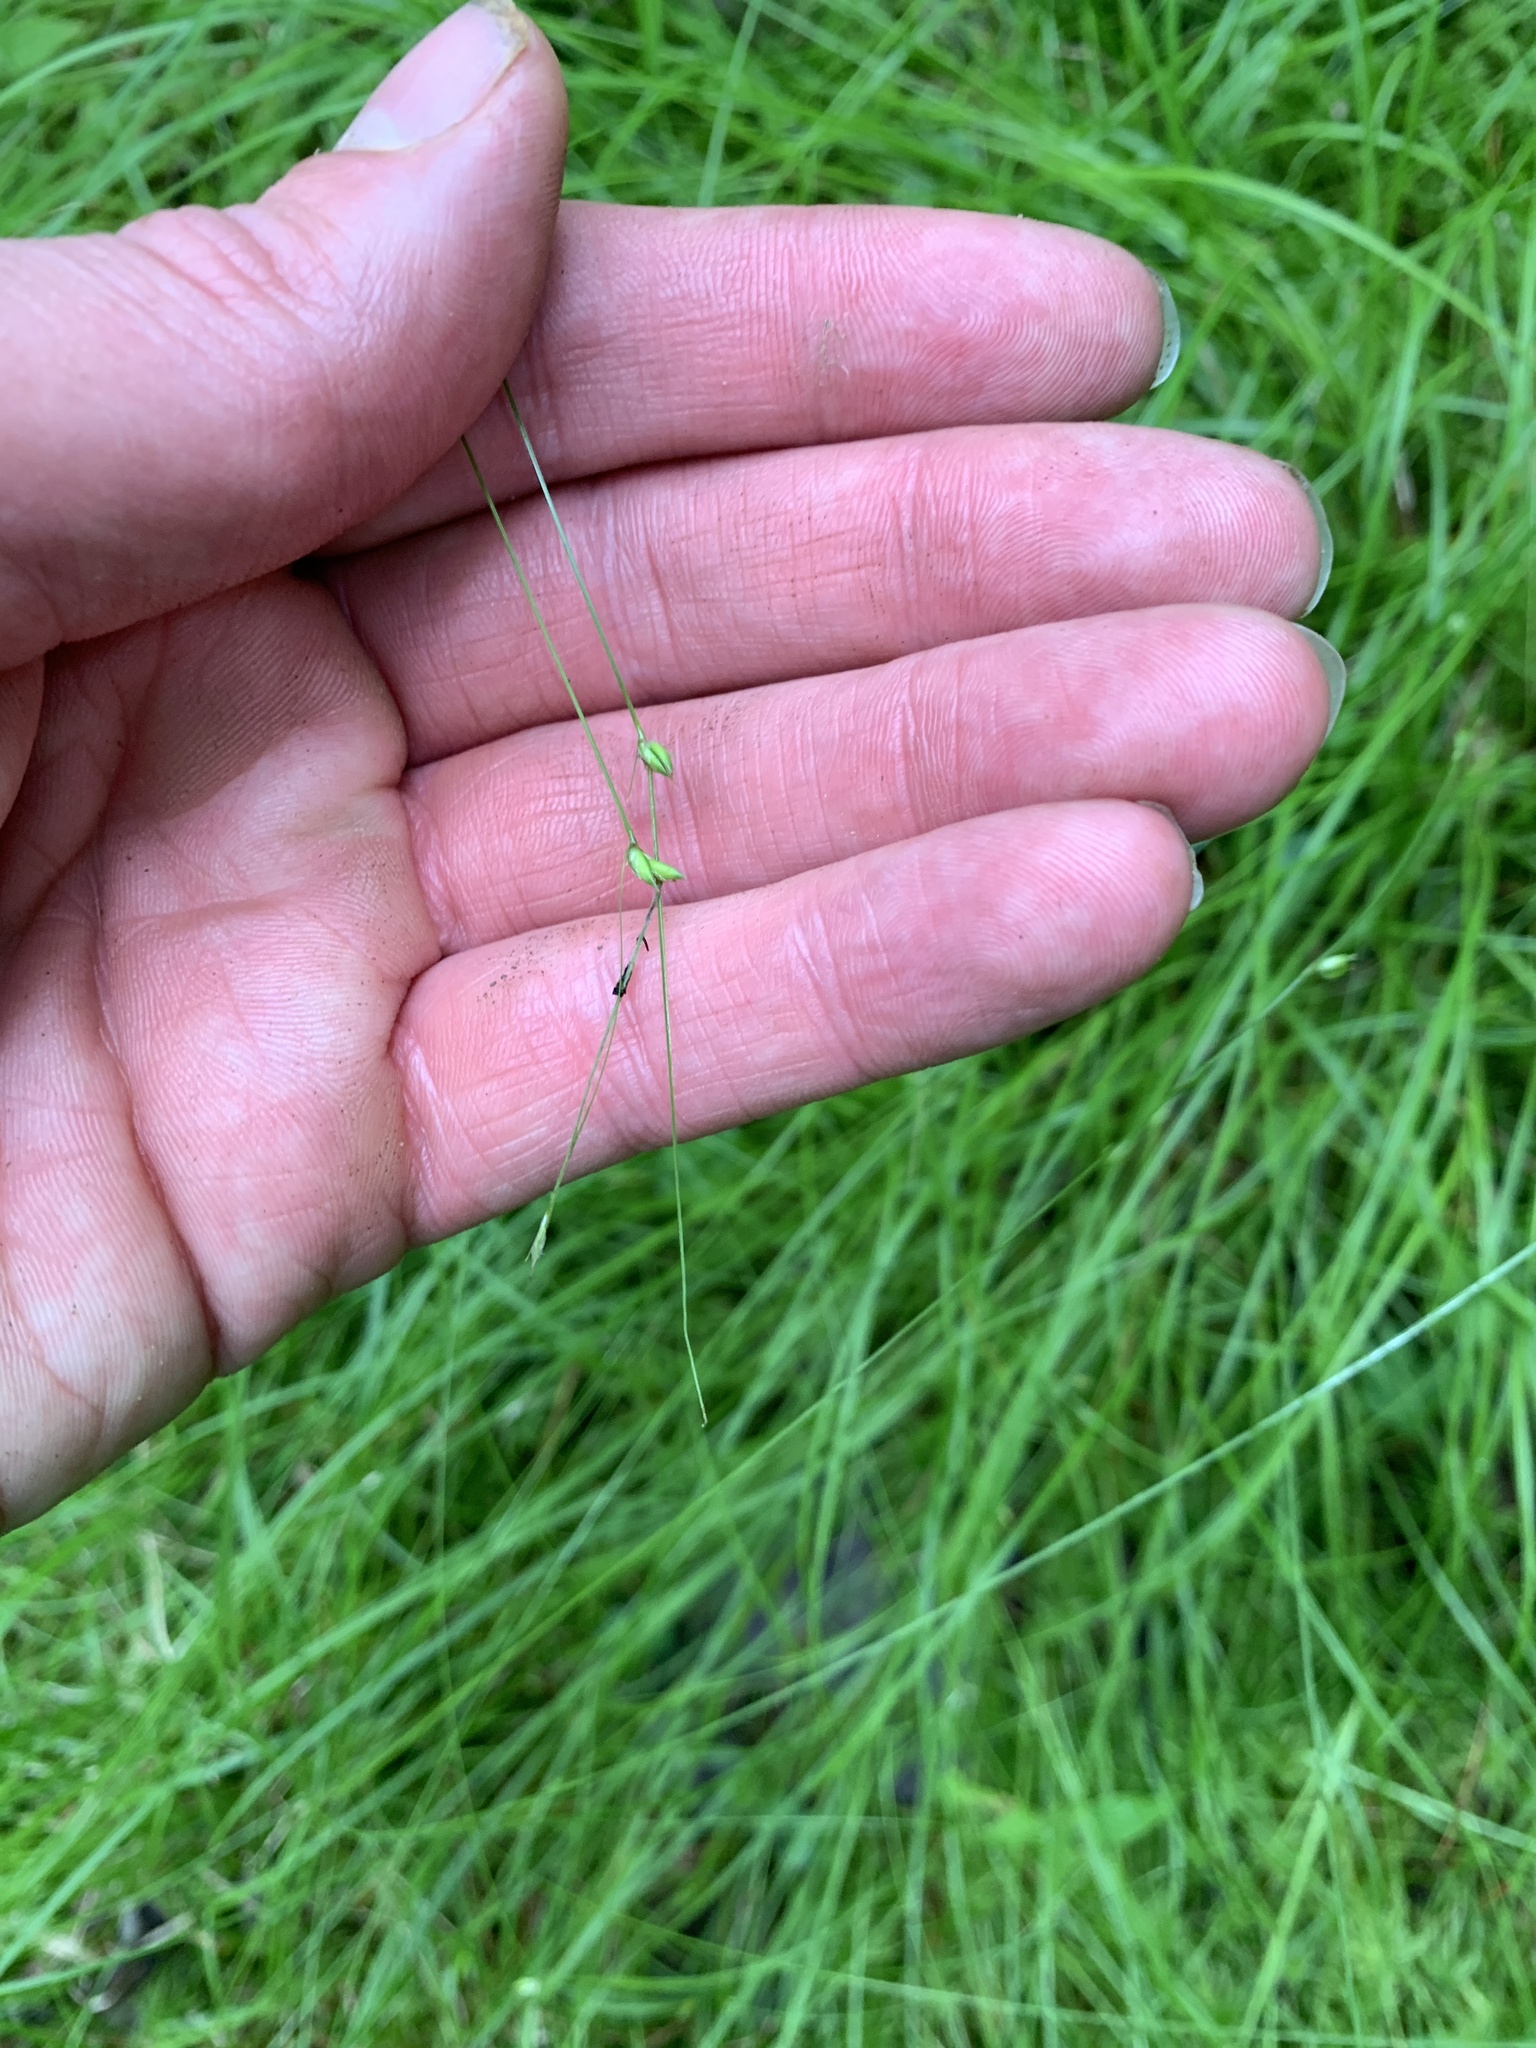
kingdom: Plantae
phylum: Tracheophyta
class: Liliopsida
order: Poales
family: Cyperaceae
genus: Carex
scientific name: Carex trisperma
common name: Three-seeded sedge
